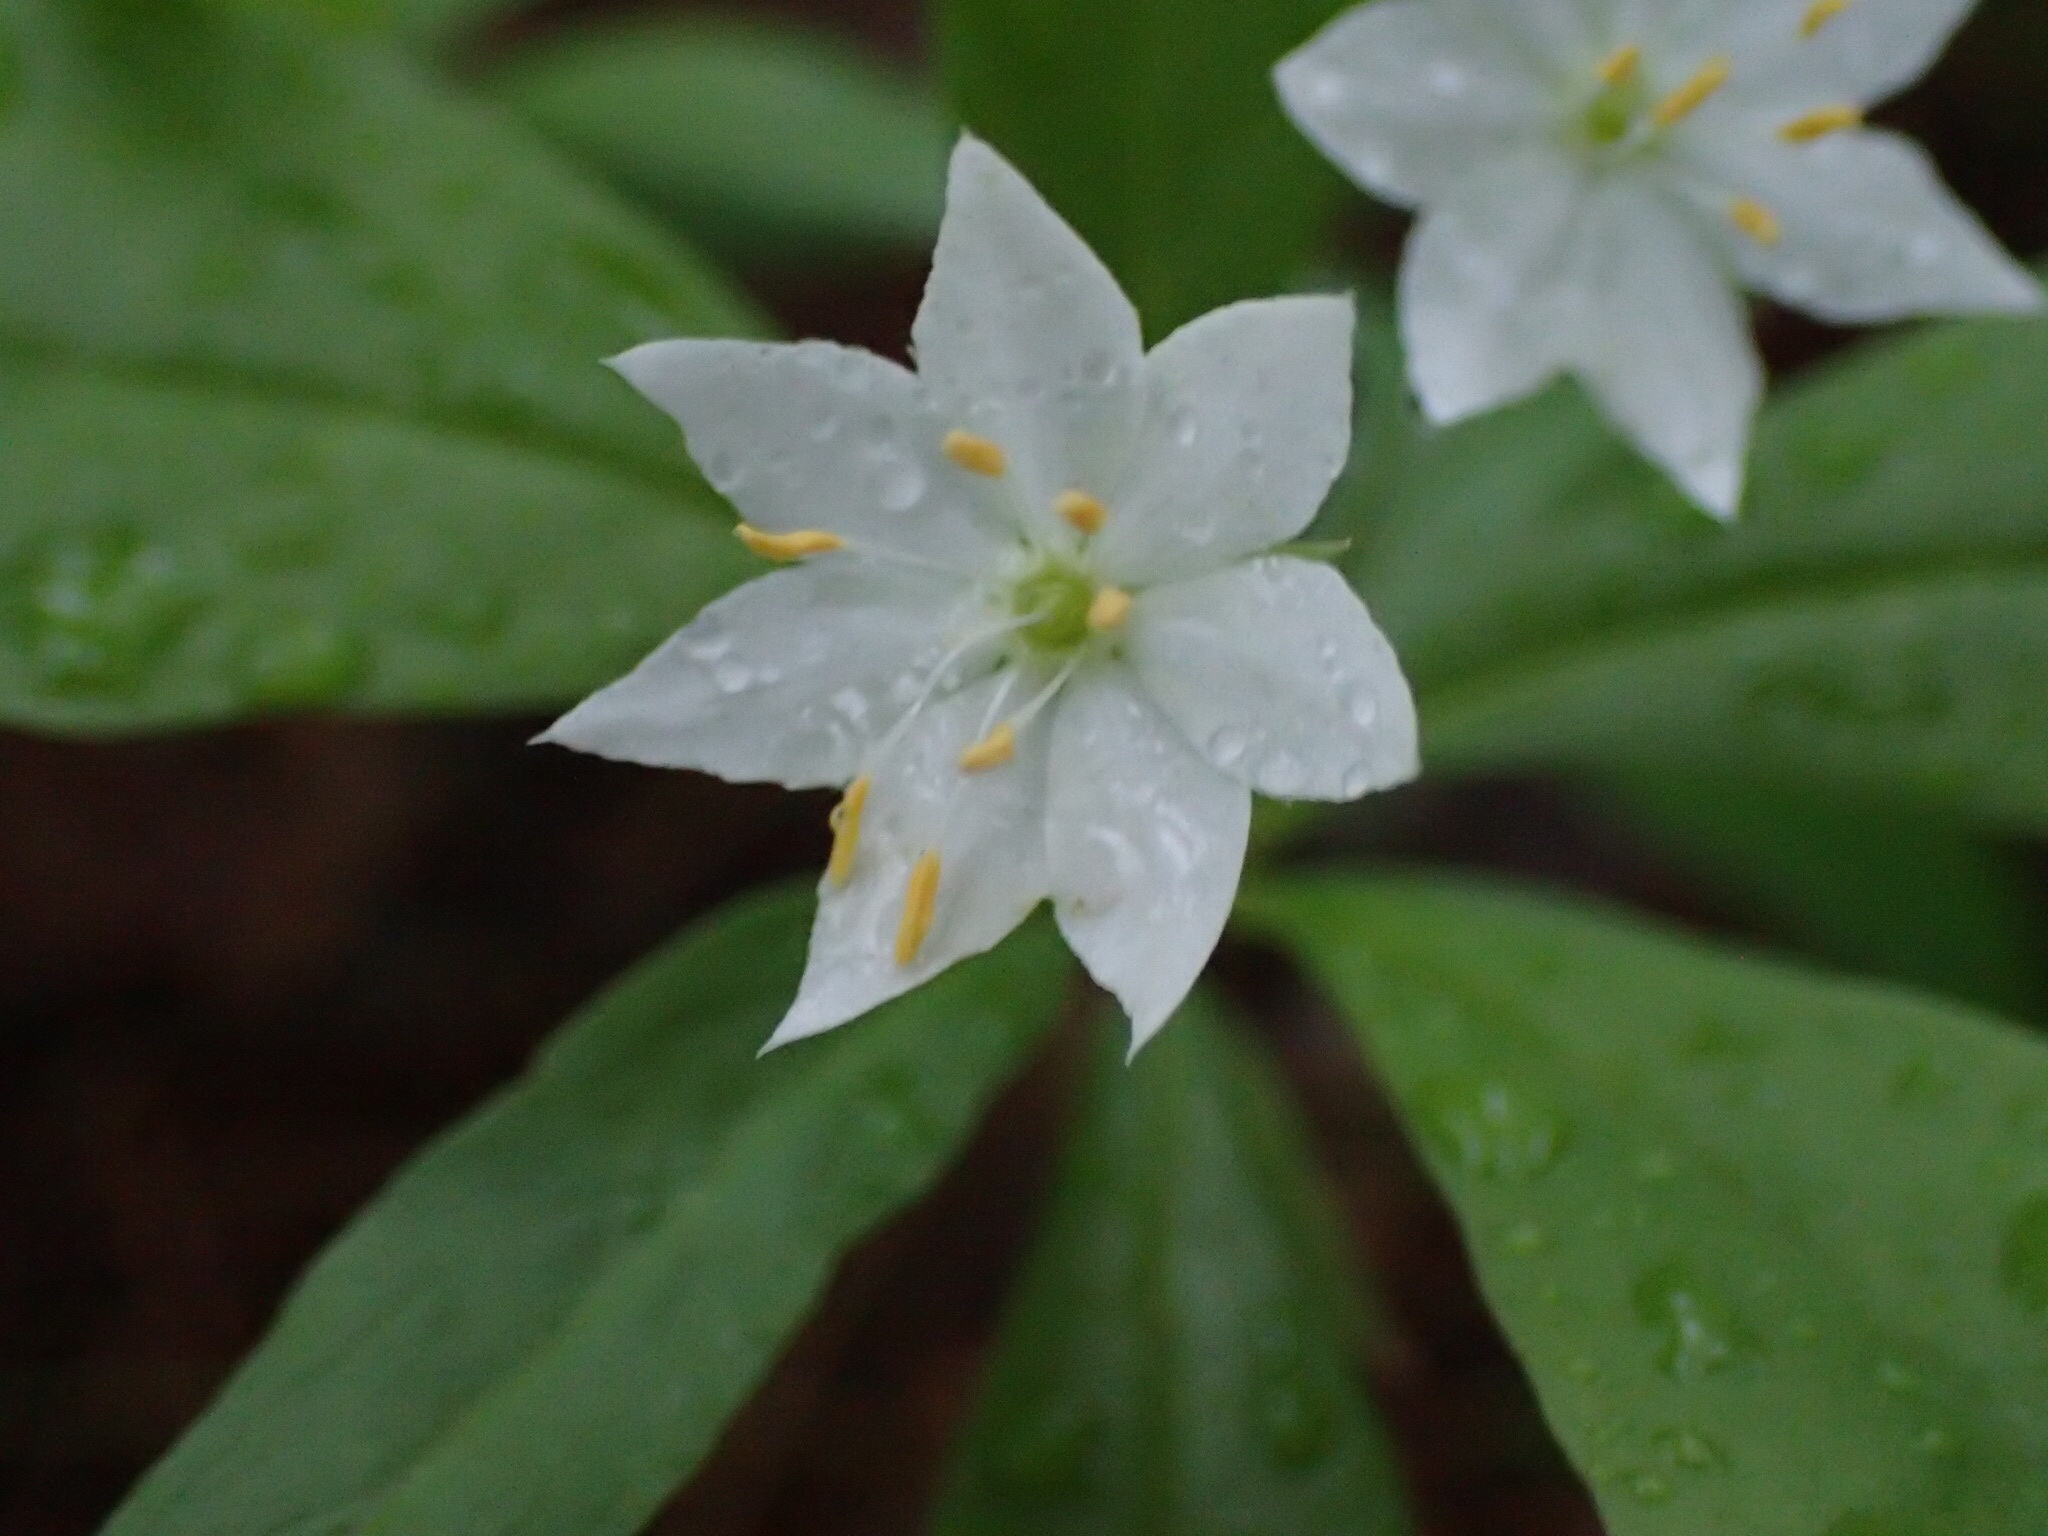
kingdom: Plantae
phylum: Tracheophyta
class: Magnoliopsida
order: Ericales
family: Primulaceae
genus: Lysimachia
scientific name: Lysimachia borealis
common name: American starflower
